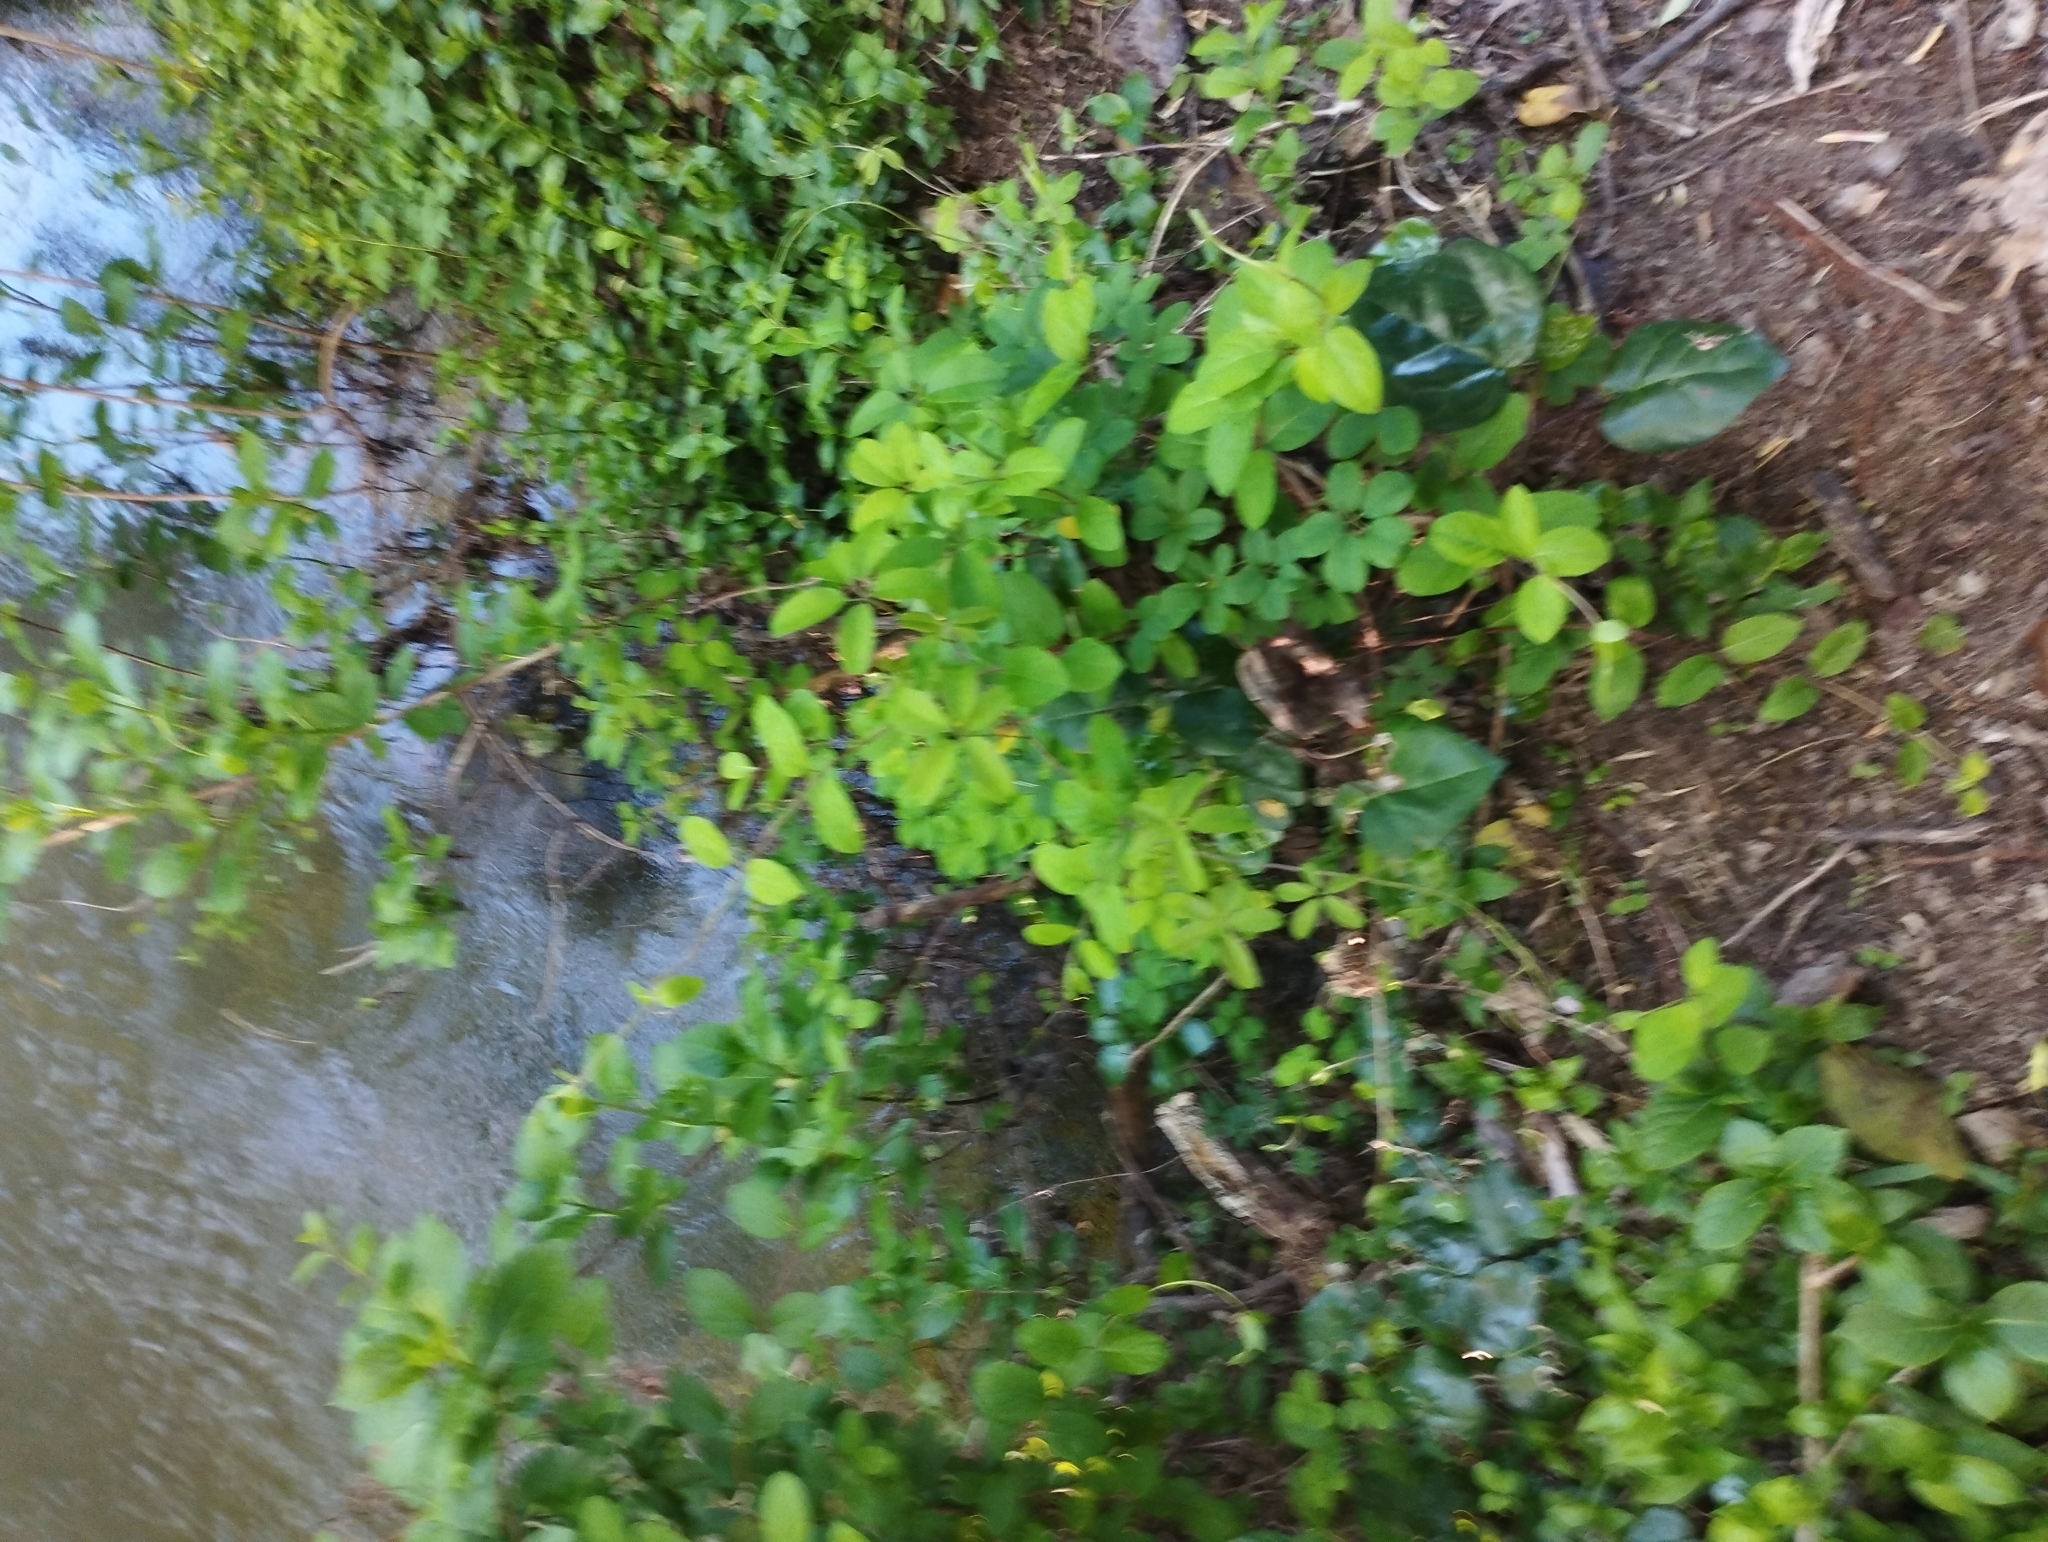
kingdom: Plantae
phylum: Tracheophyta
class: Magnoliopsida
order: Ranunculales
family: Lardizabalaceae
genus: Akebia
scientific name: Akebia quinata
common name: Five-leaf akebia
